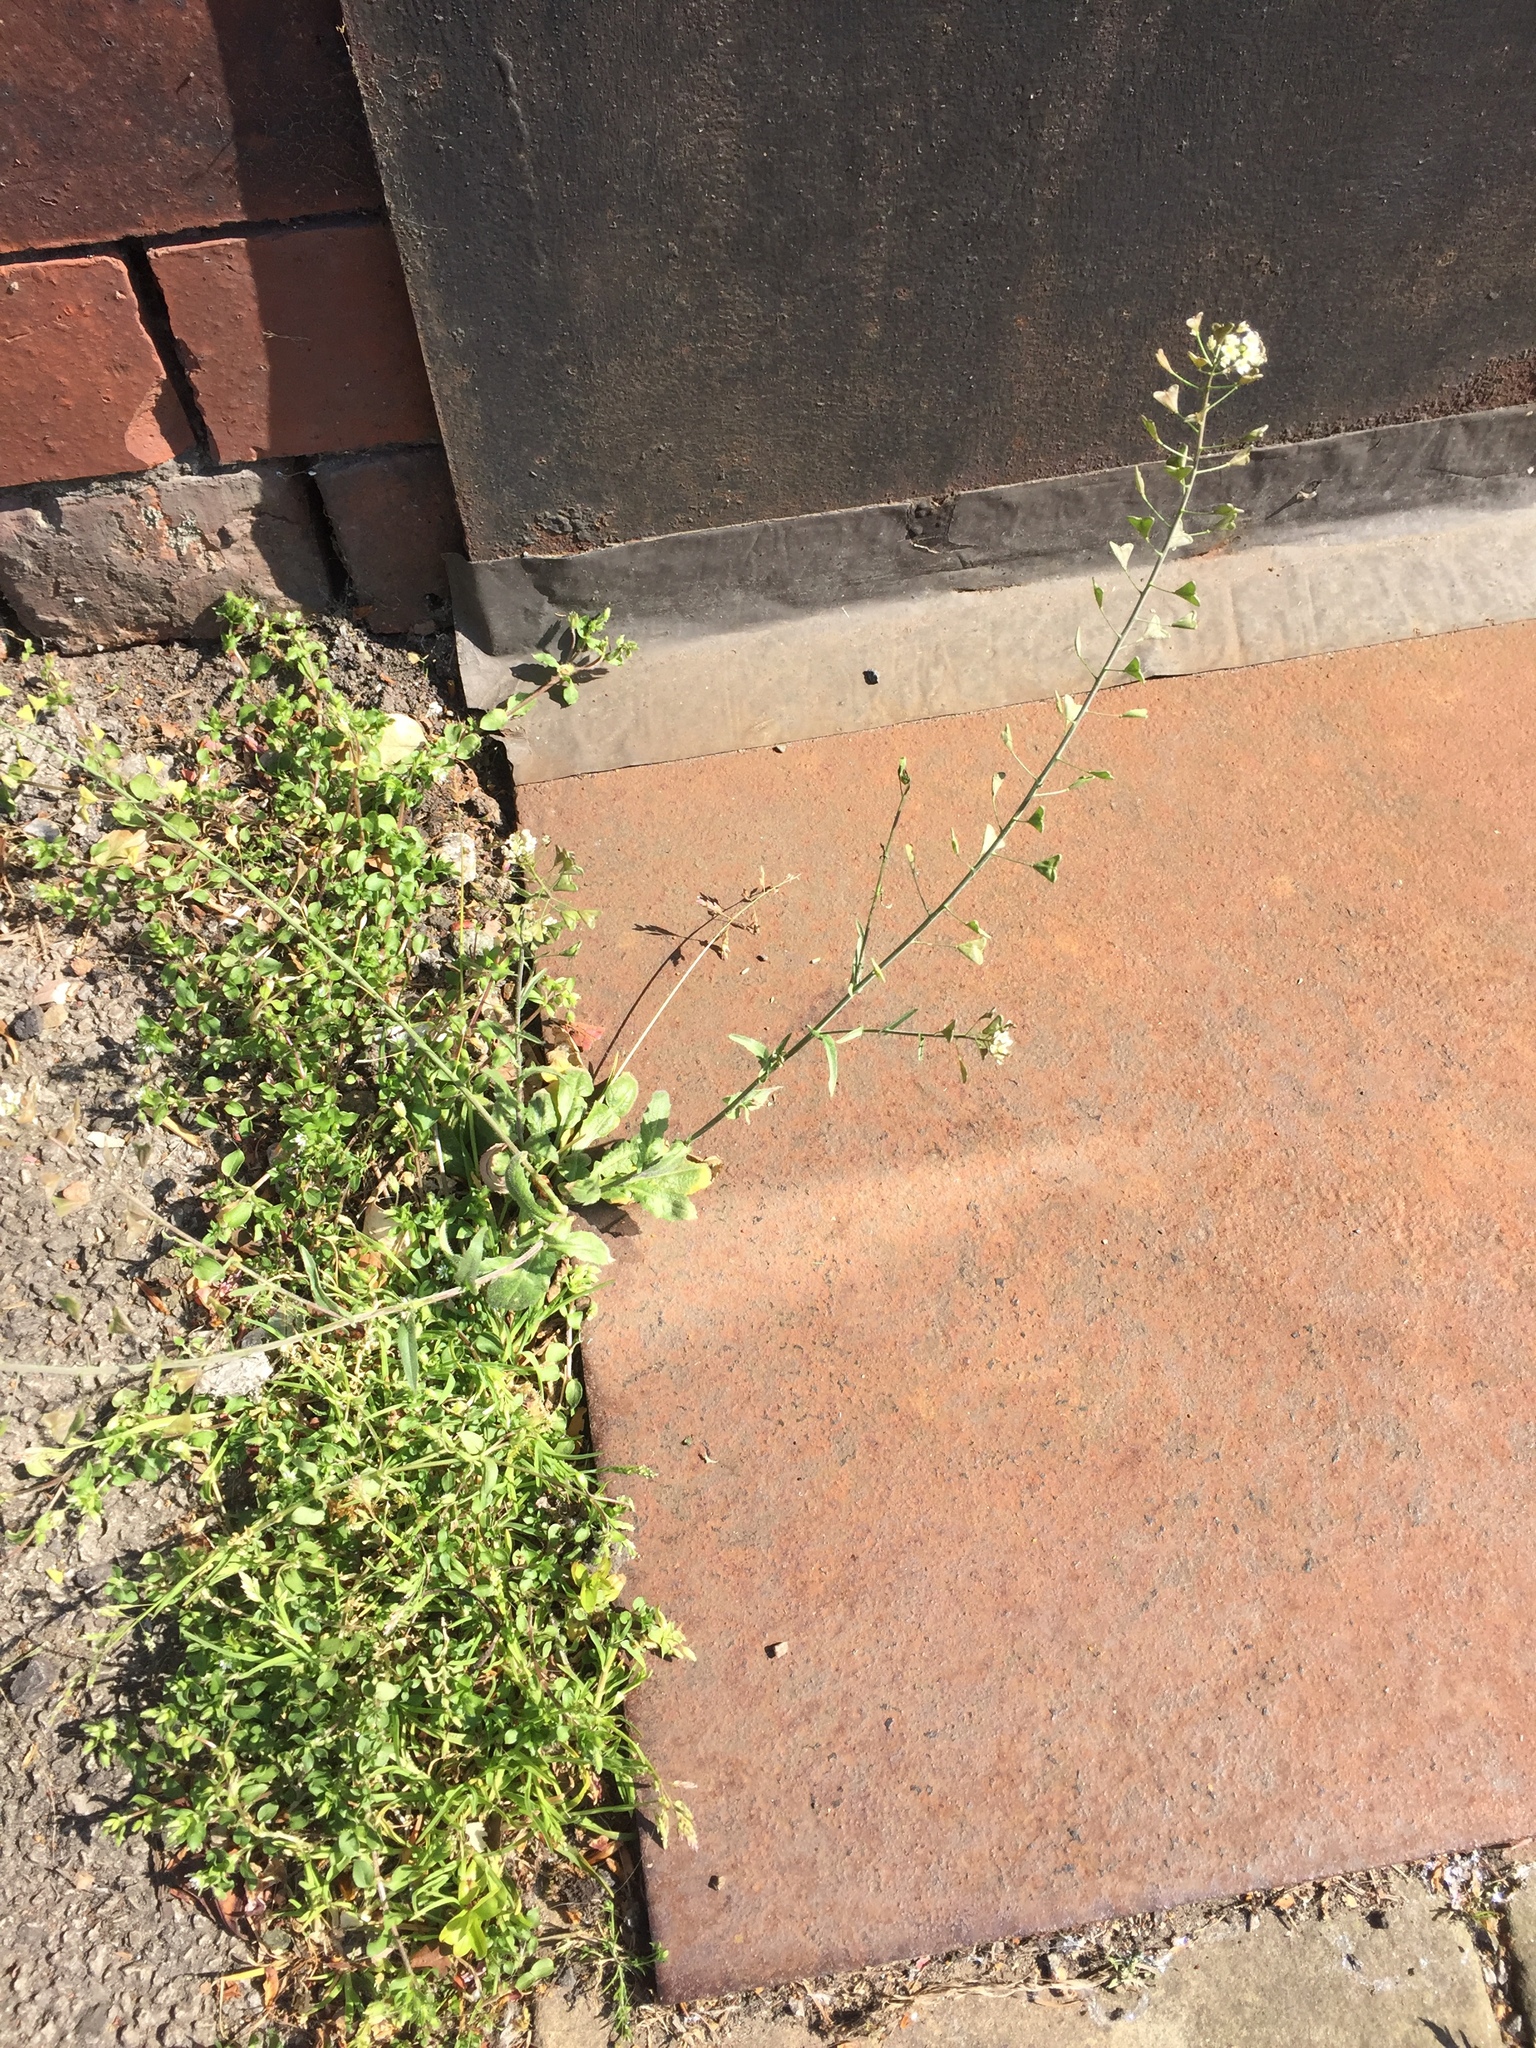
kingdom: Plantae
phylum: Tracheophyta
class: Magnoliopsida
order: Brassicales
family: Brassicaceae
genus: Capsella
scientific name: Capsella bursa-pastoris
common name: Shepherd's purse
